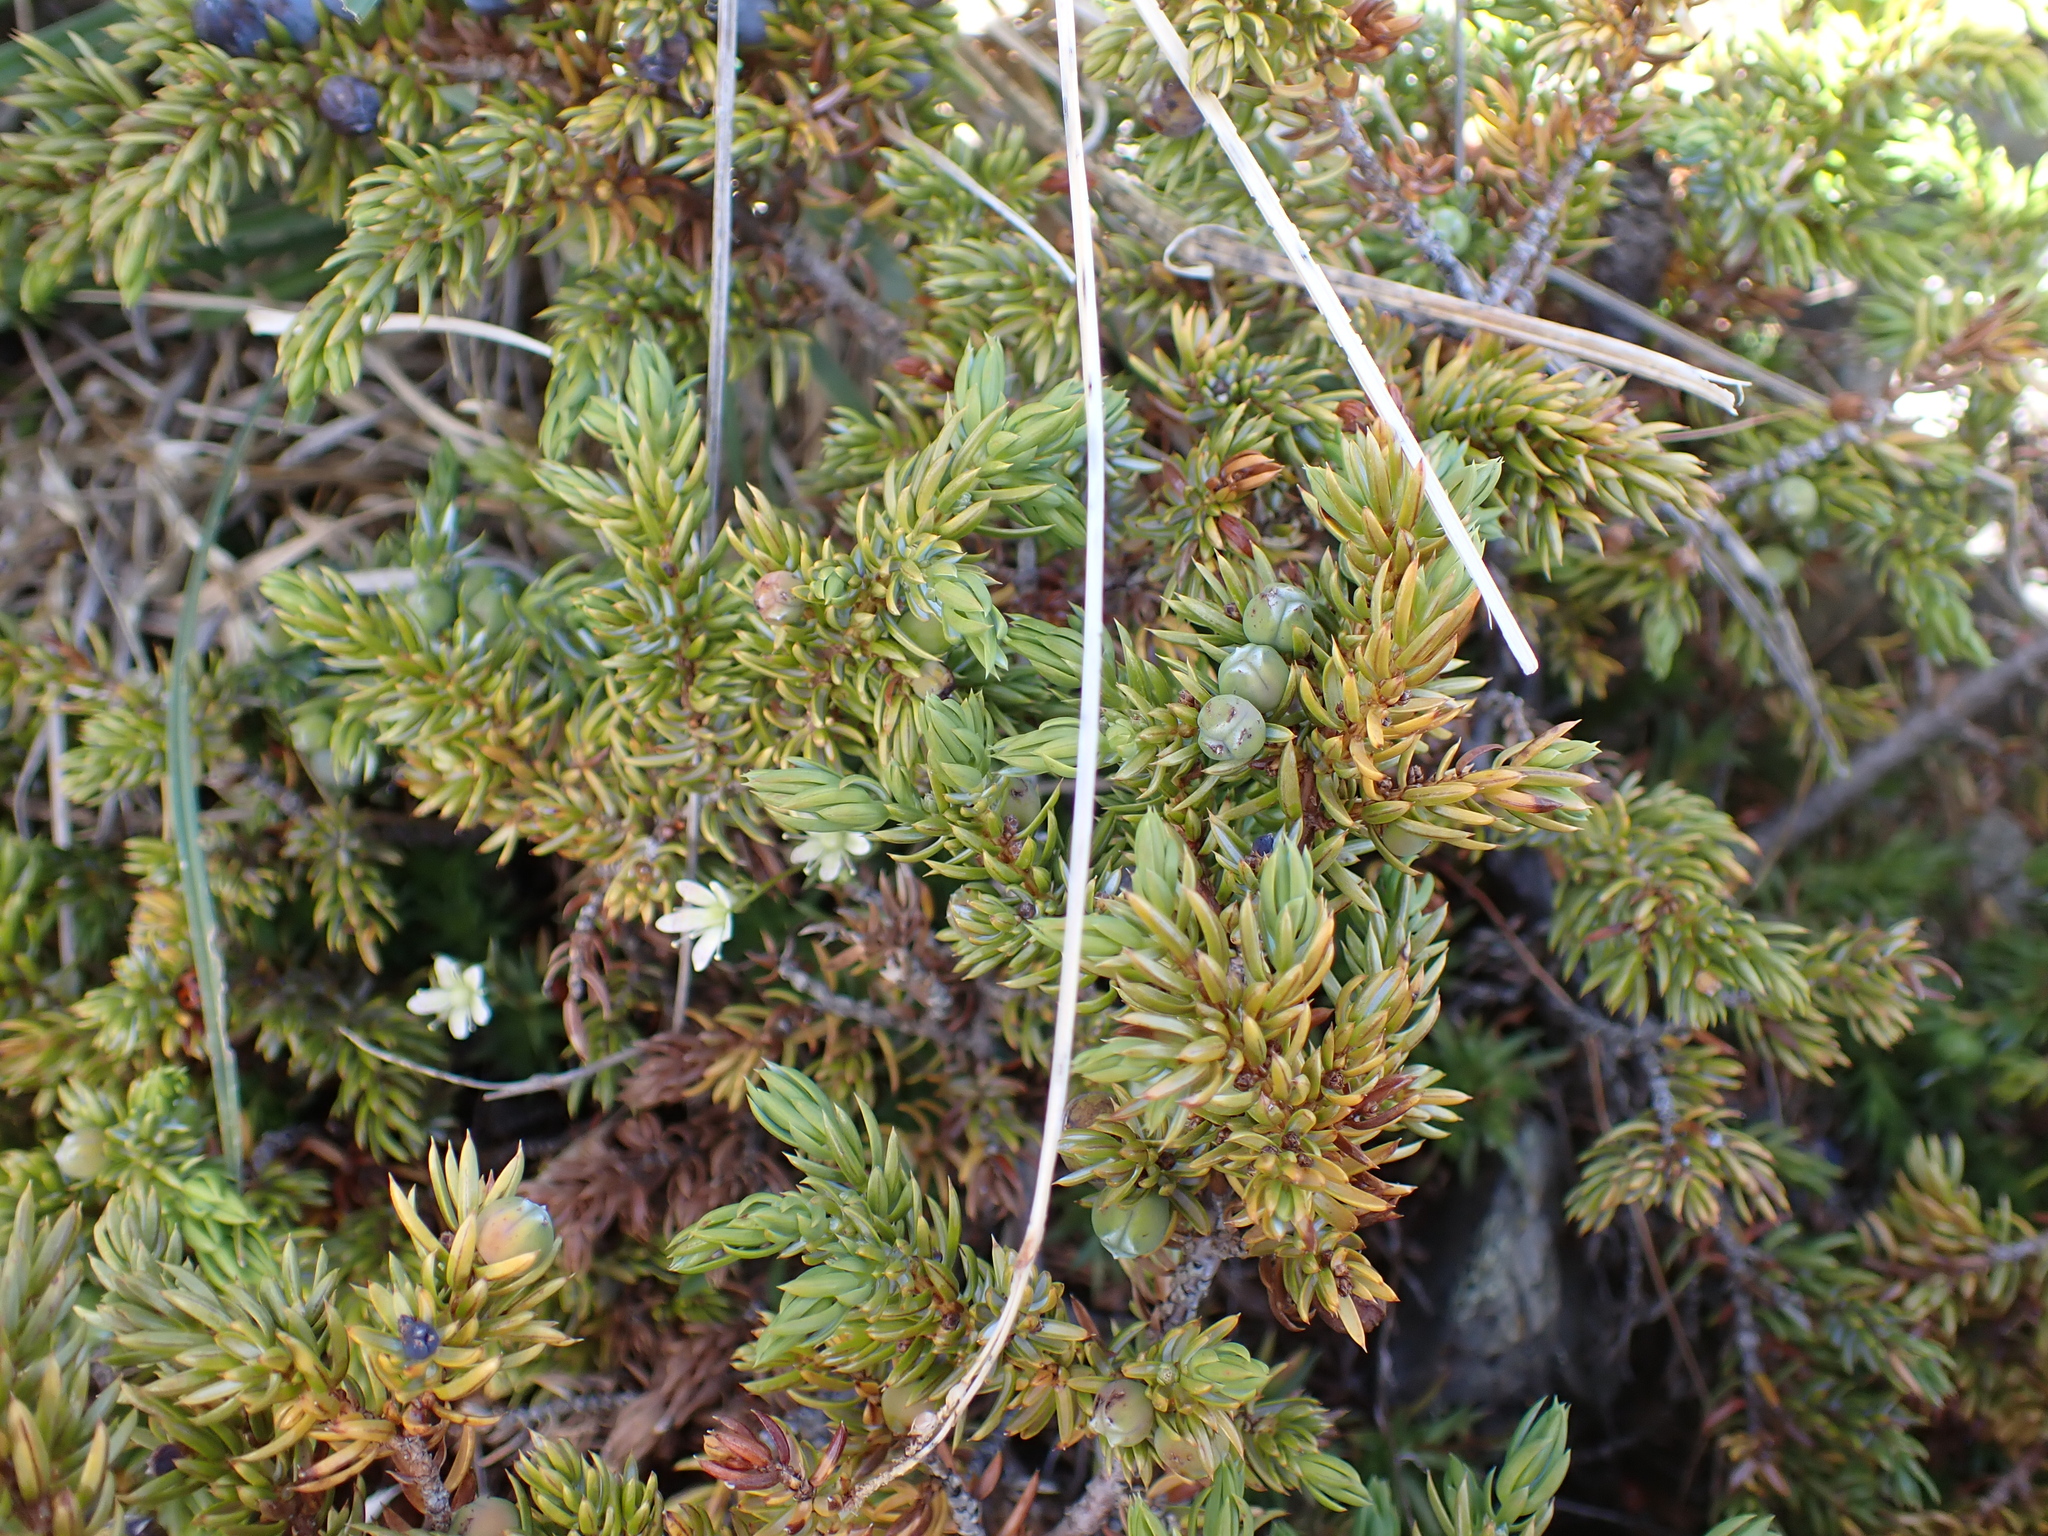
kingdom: Plantae
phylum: Tracheophyta
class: Pinopsida
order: Pinales
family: Cupressaceae
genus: Juniperus
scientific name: Juniperus communis
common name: Common juniper
